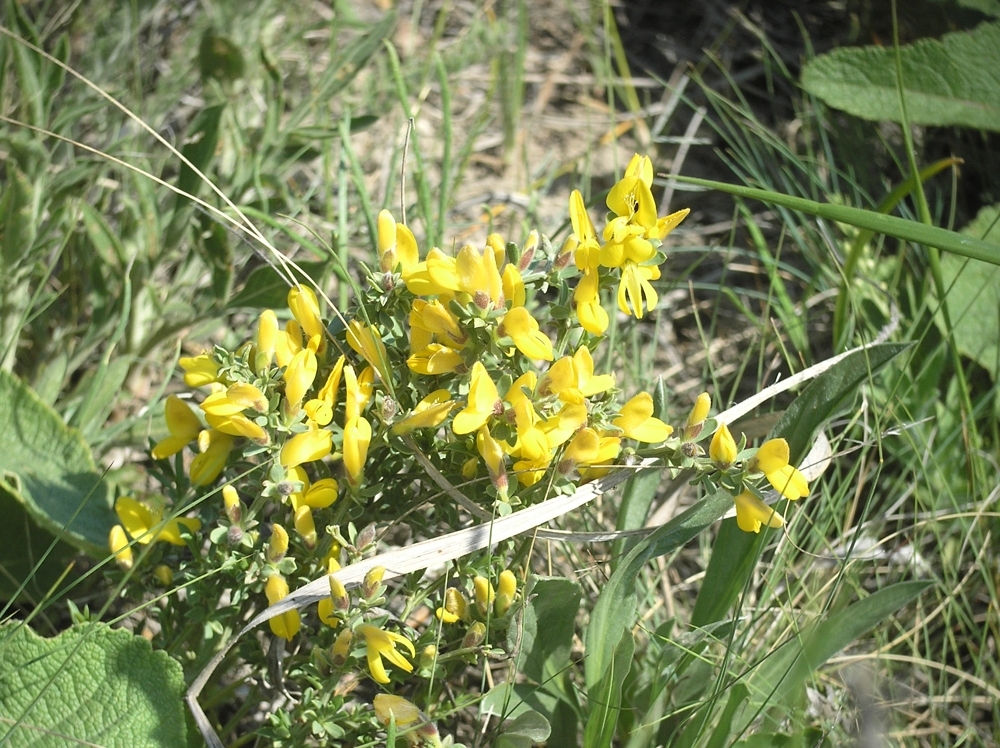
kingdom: Plantae
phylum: Tracheophyta
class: Magnoliopsida
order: Fabales
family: Fabaceae
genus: Caragana
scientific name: Caragana scythica
